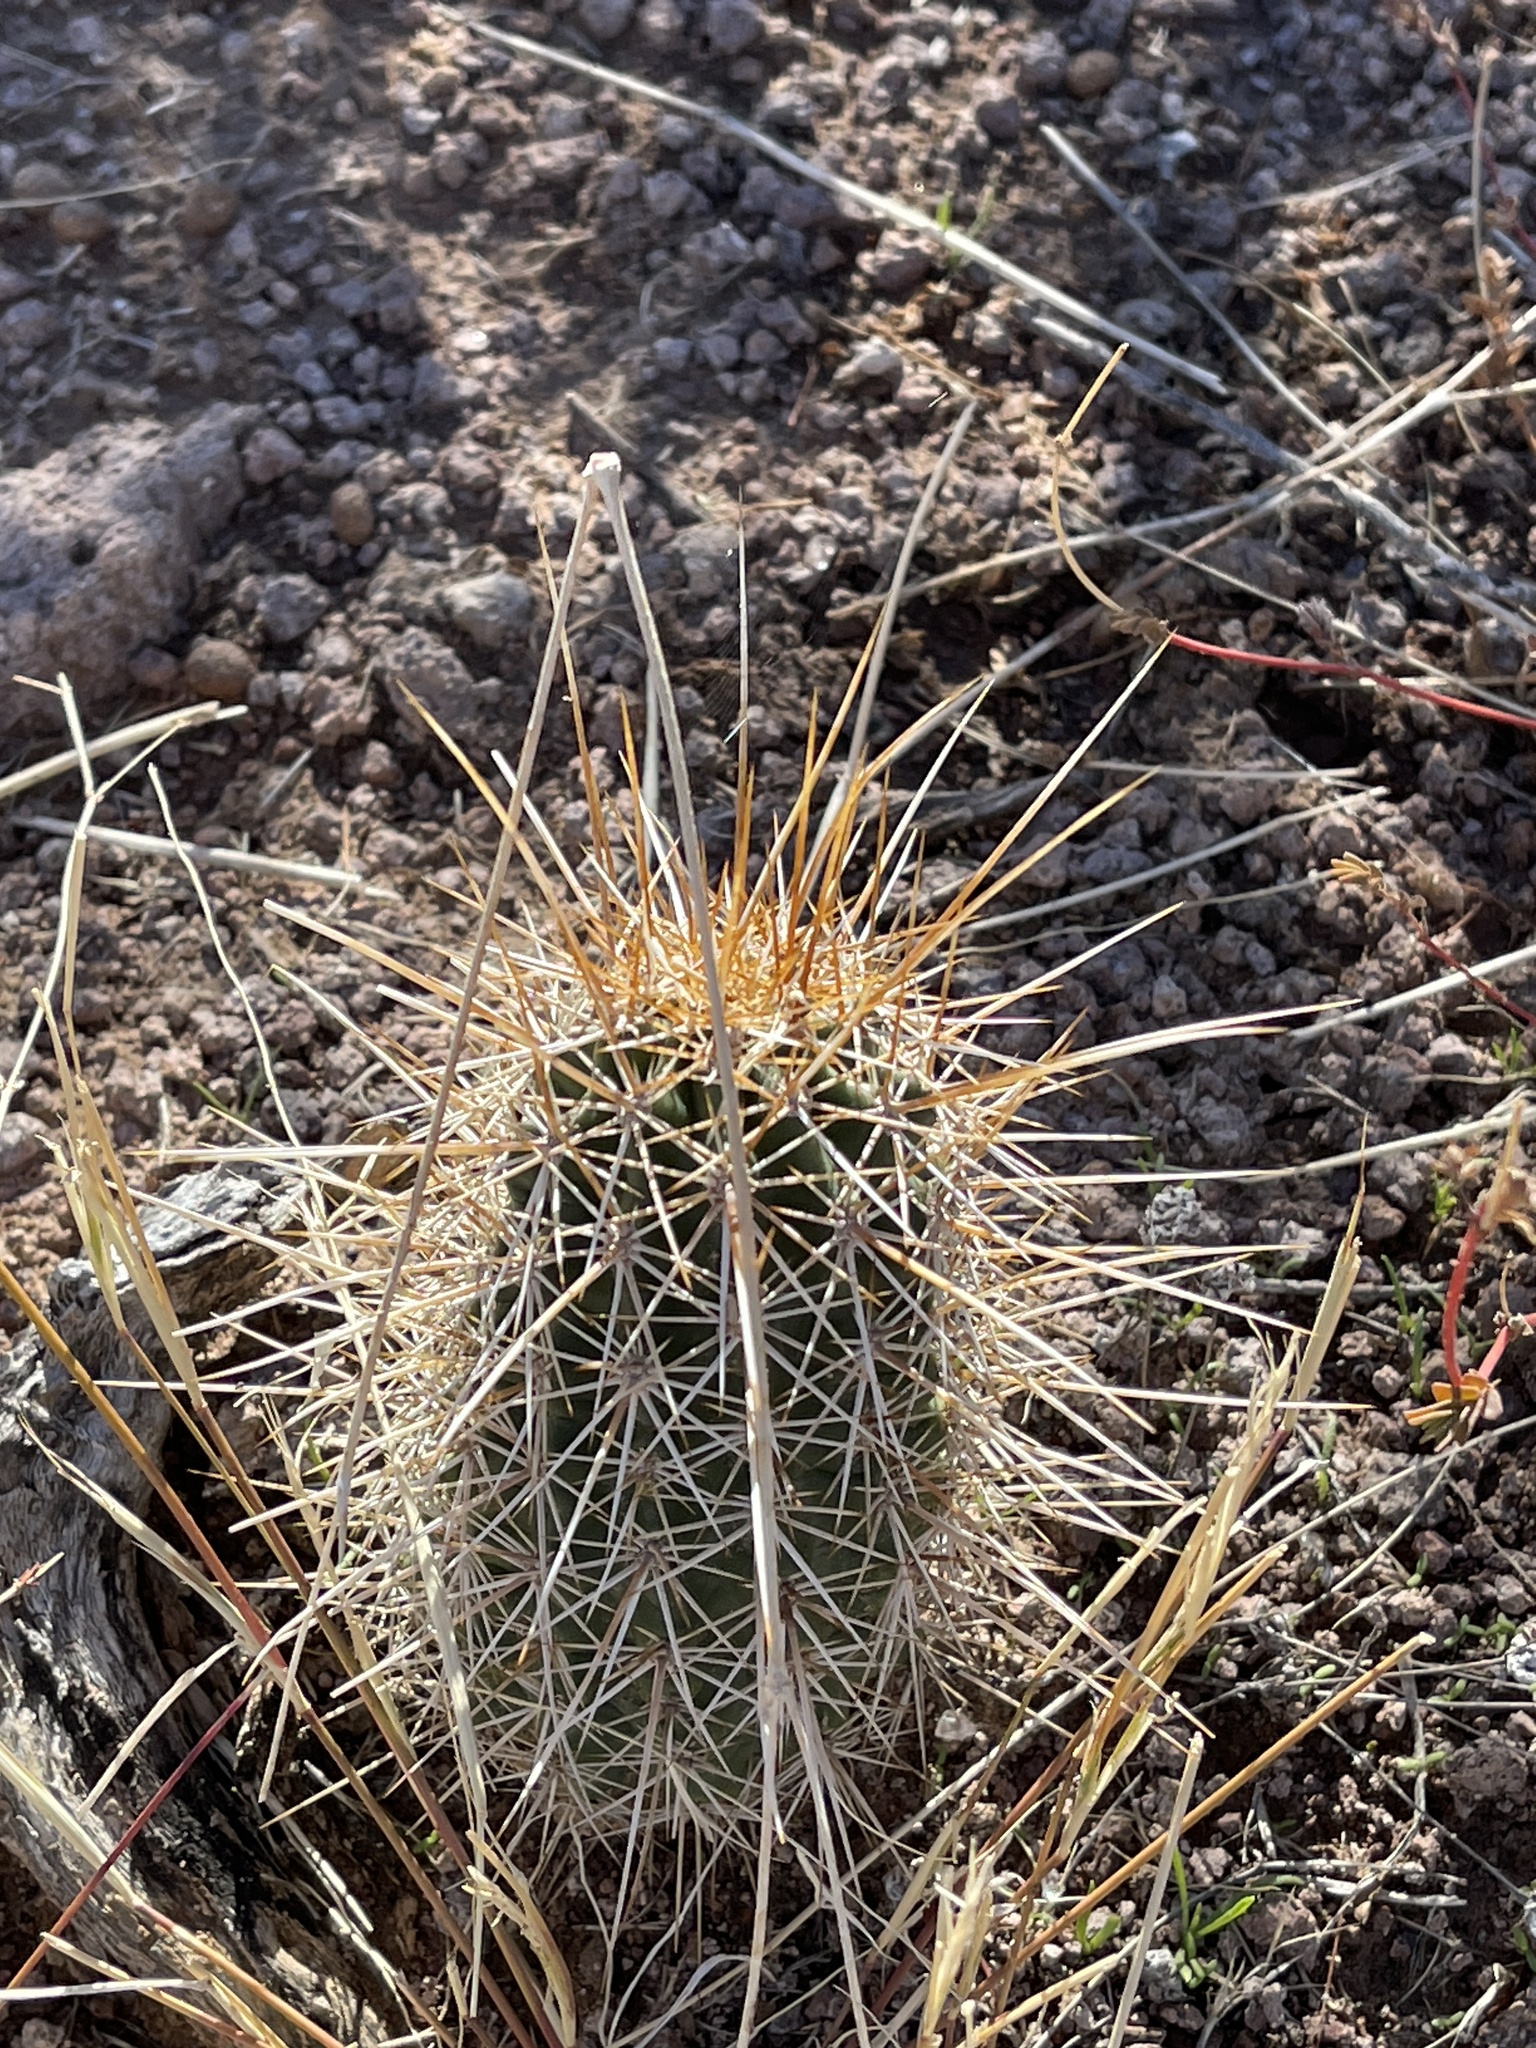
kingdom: Plantae
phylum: Tracheophyta
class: Magnoliopsida
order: Caryophyllales
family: Cactaceae
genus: Echinocereus
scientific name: Echinocereus fasciculatus
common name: Bundle hedgehog
